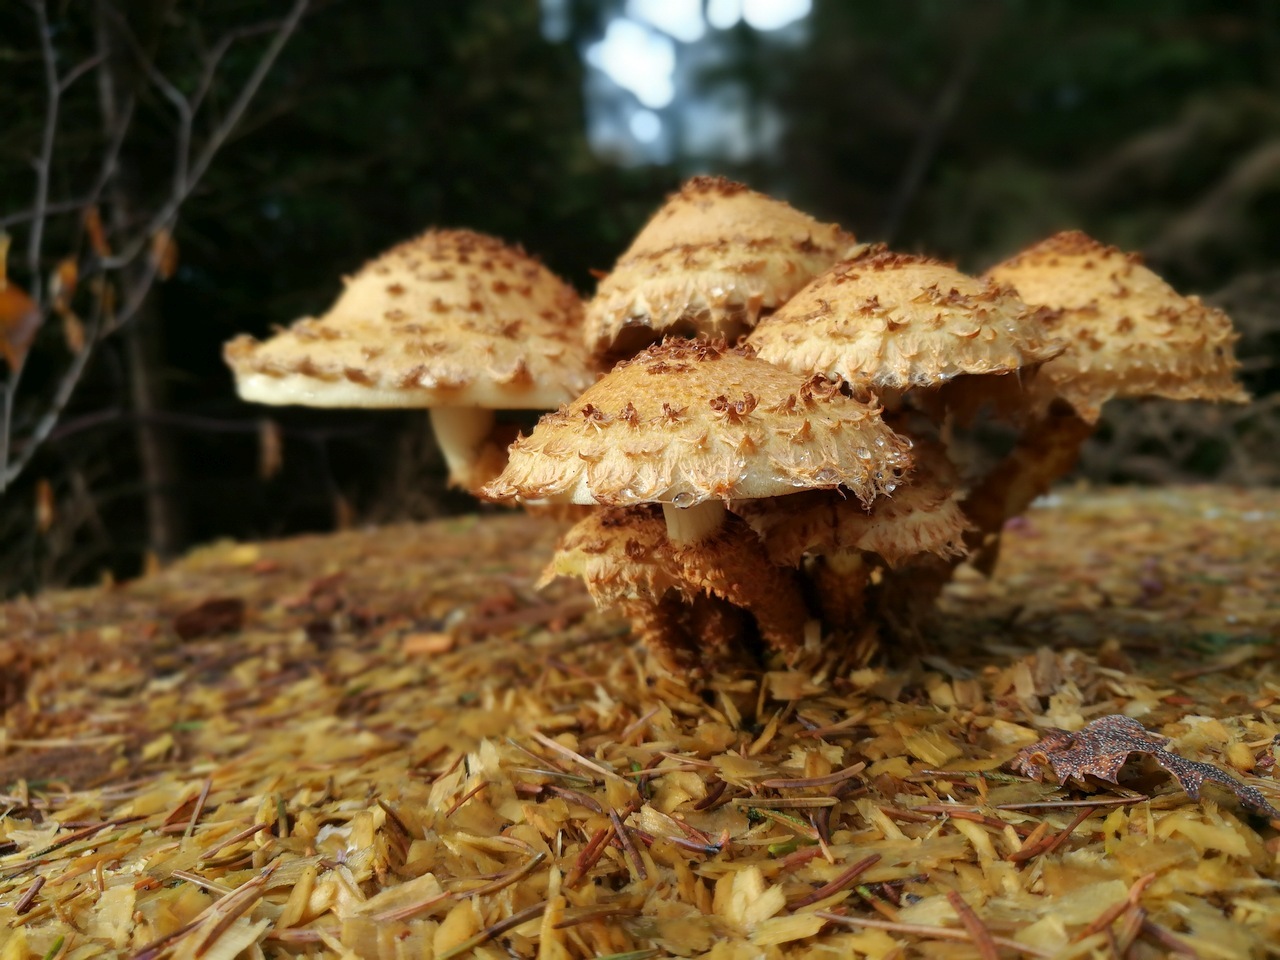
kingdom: Fungi
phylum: Basidiomycota
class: Agaricomycetes
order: Agaricales
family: Strophariaceae
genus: Pholiota
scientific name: Pholiota squarrosa
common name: Shaggy pholiota
